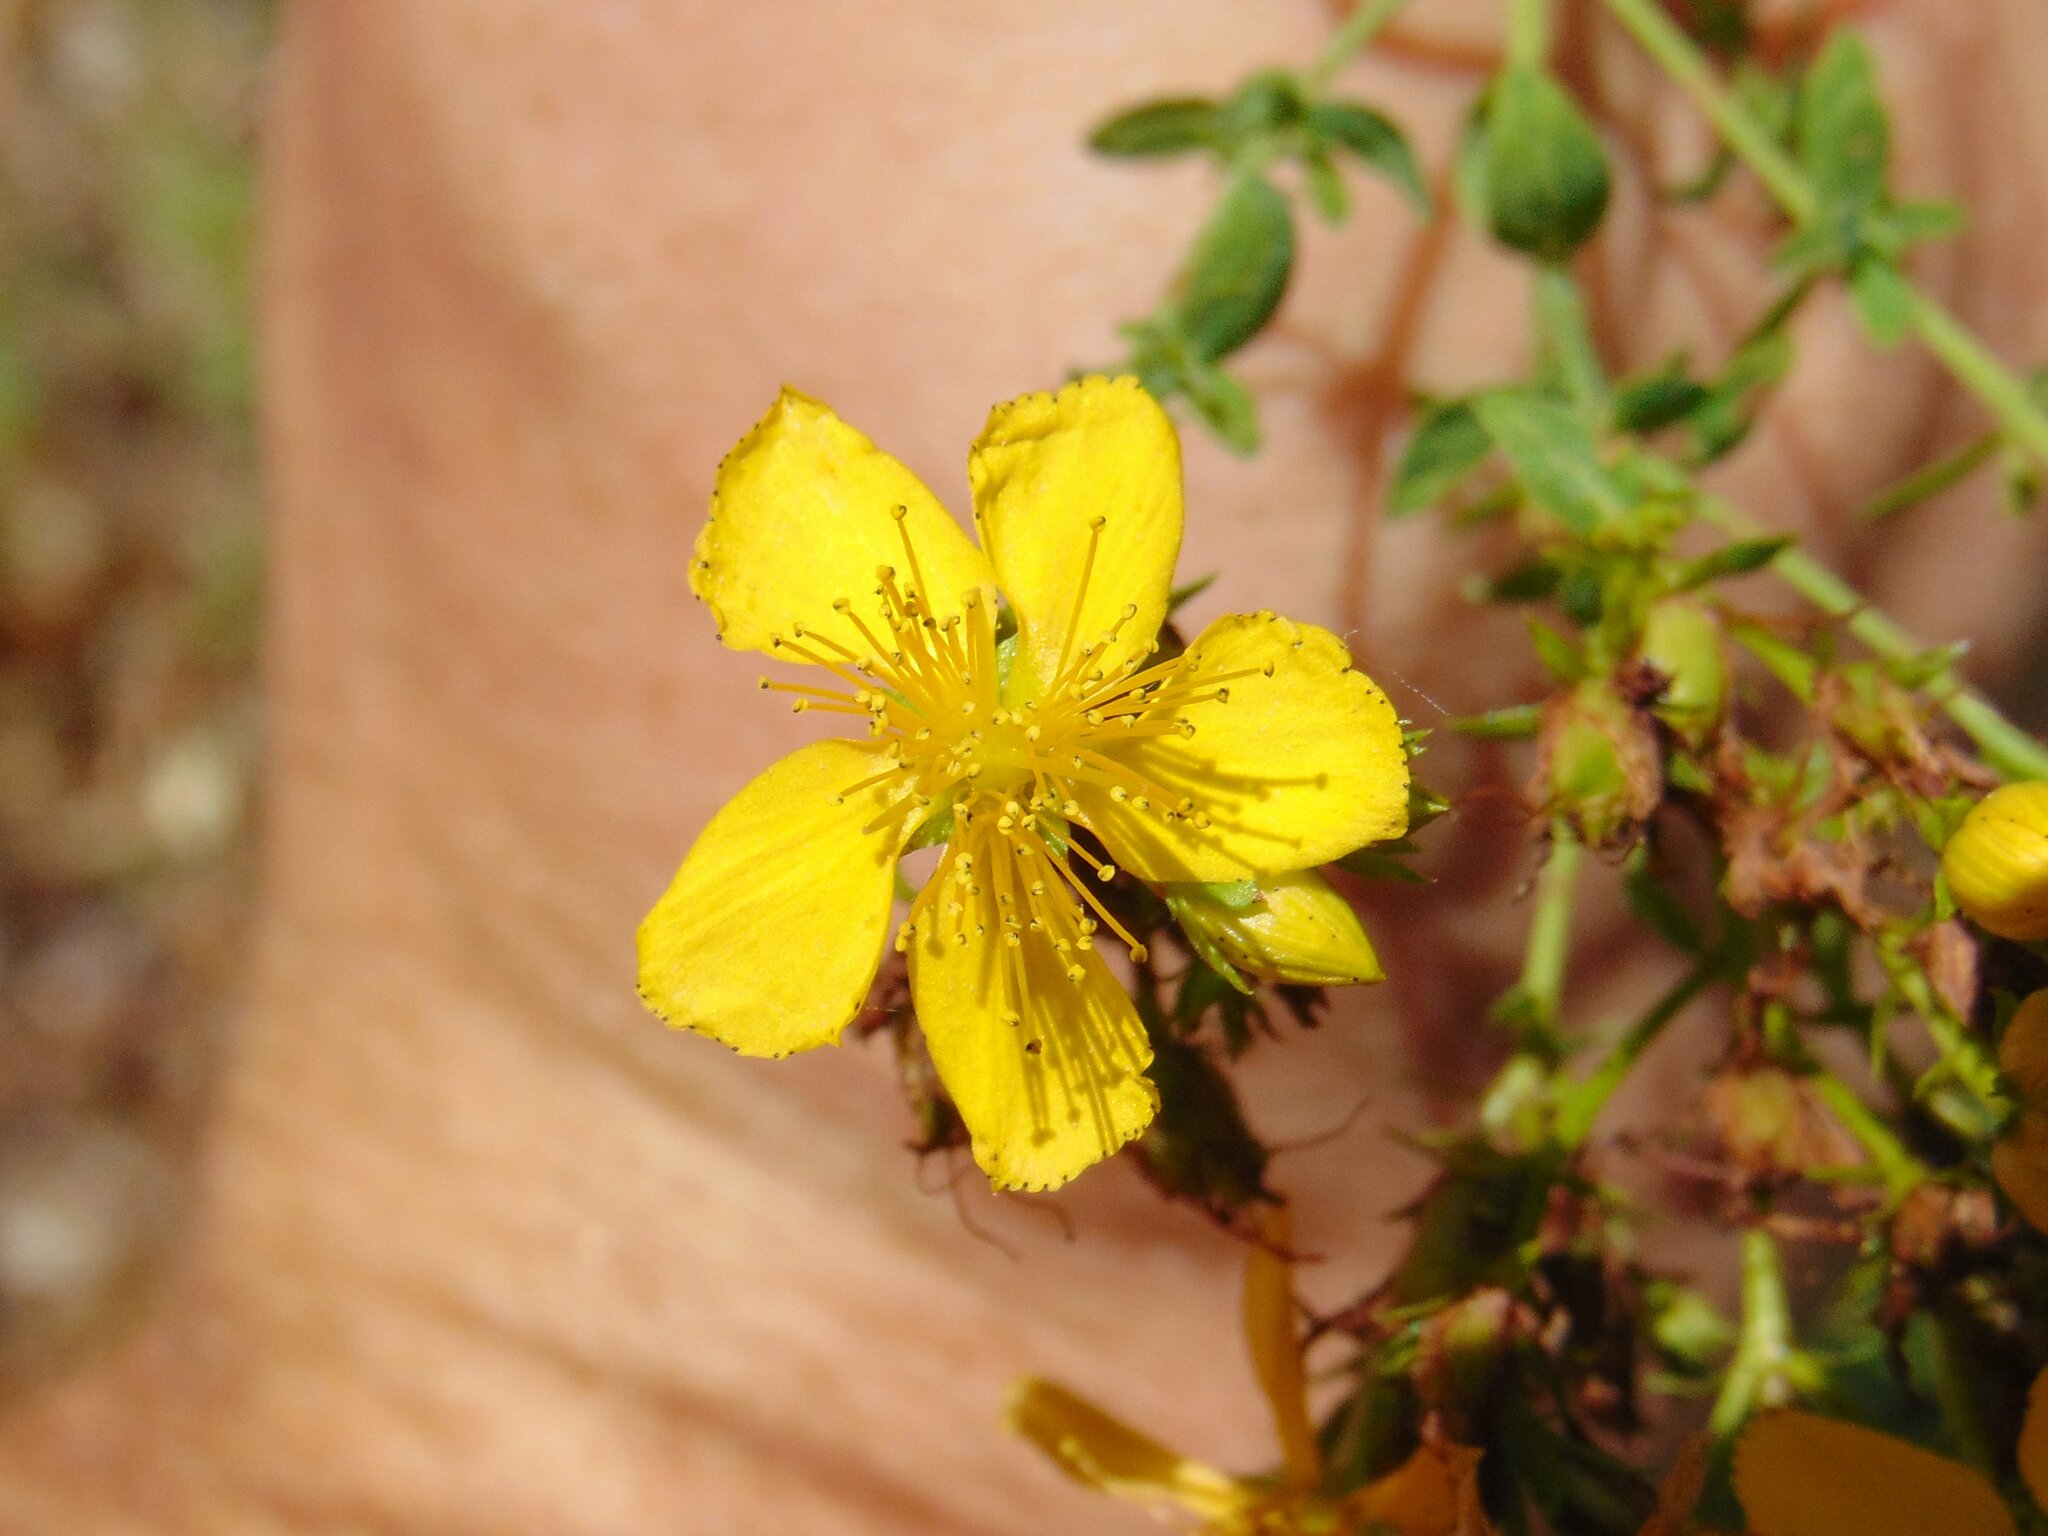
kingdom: Plantae
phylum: Tracheophyta
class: Magnoliopsida
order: Malpighiales
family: Hypericaceae
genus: Hypericum
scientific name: Hypericum perforatum
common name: Common st. johnswort
